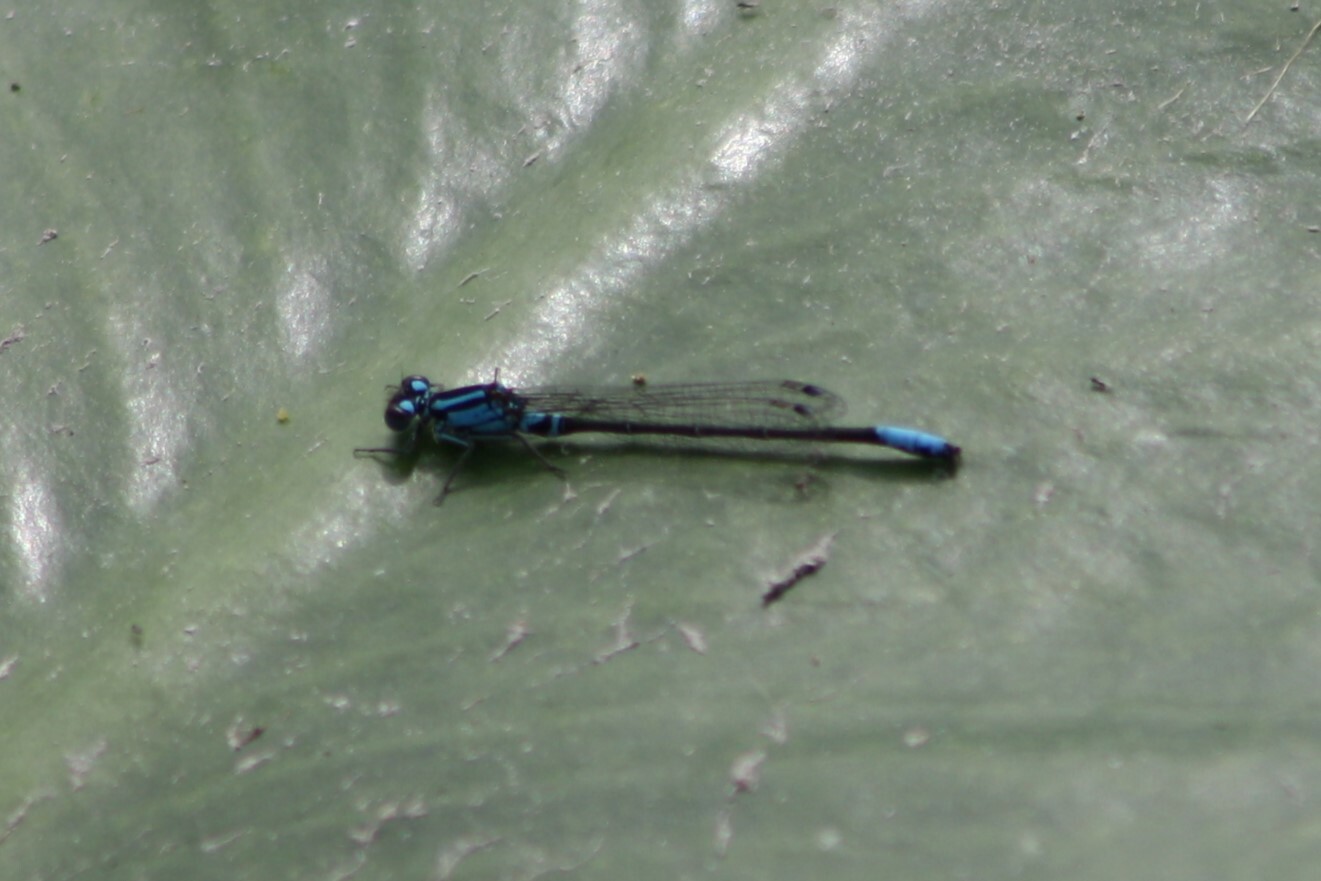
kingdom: Animalia
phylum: Arthropoda
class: Insecta
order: Odonata
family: Coenagrionidae
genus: Ischnura
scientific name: Ischnura kellicotti
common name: Lilypad forktail
